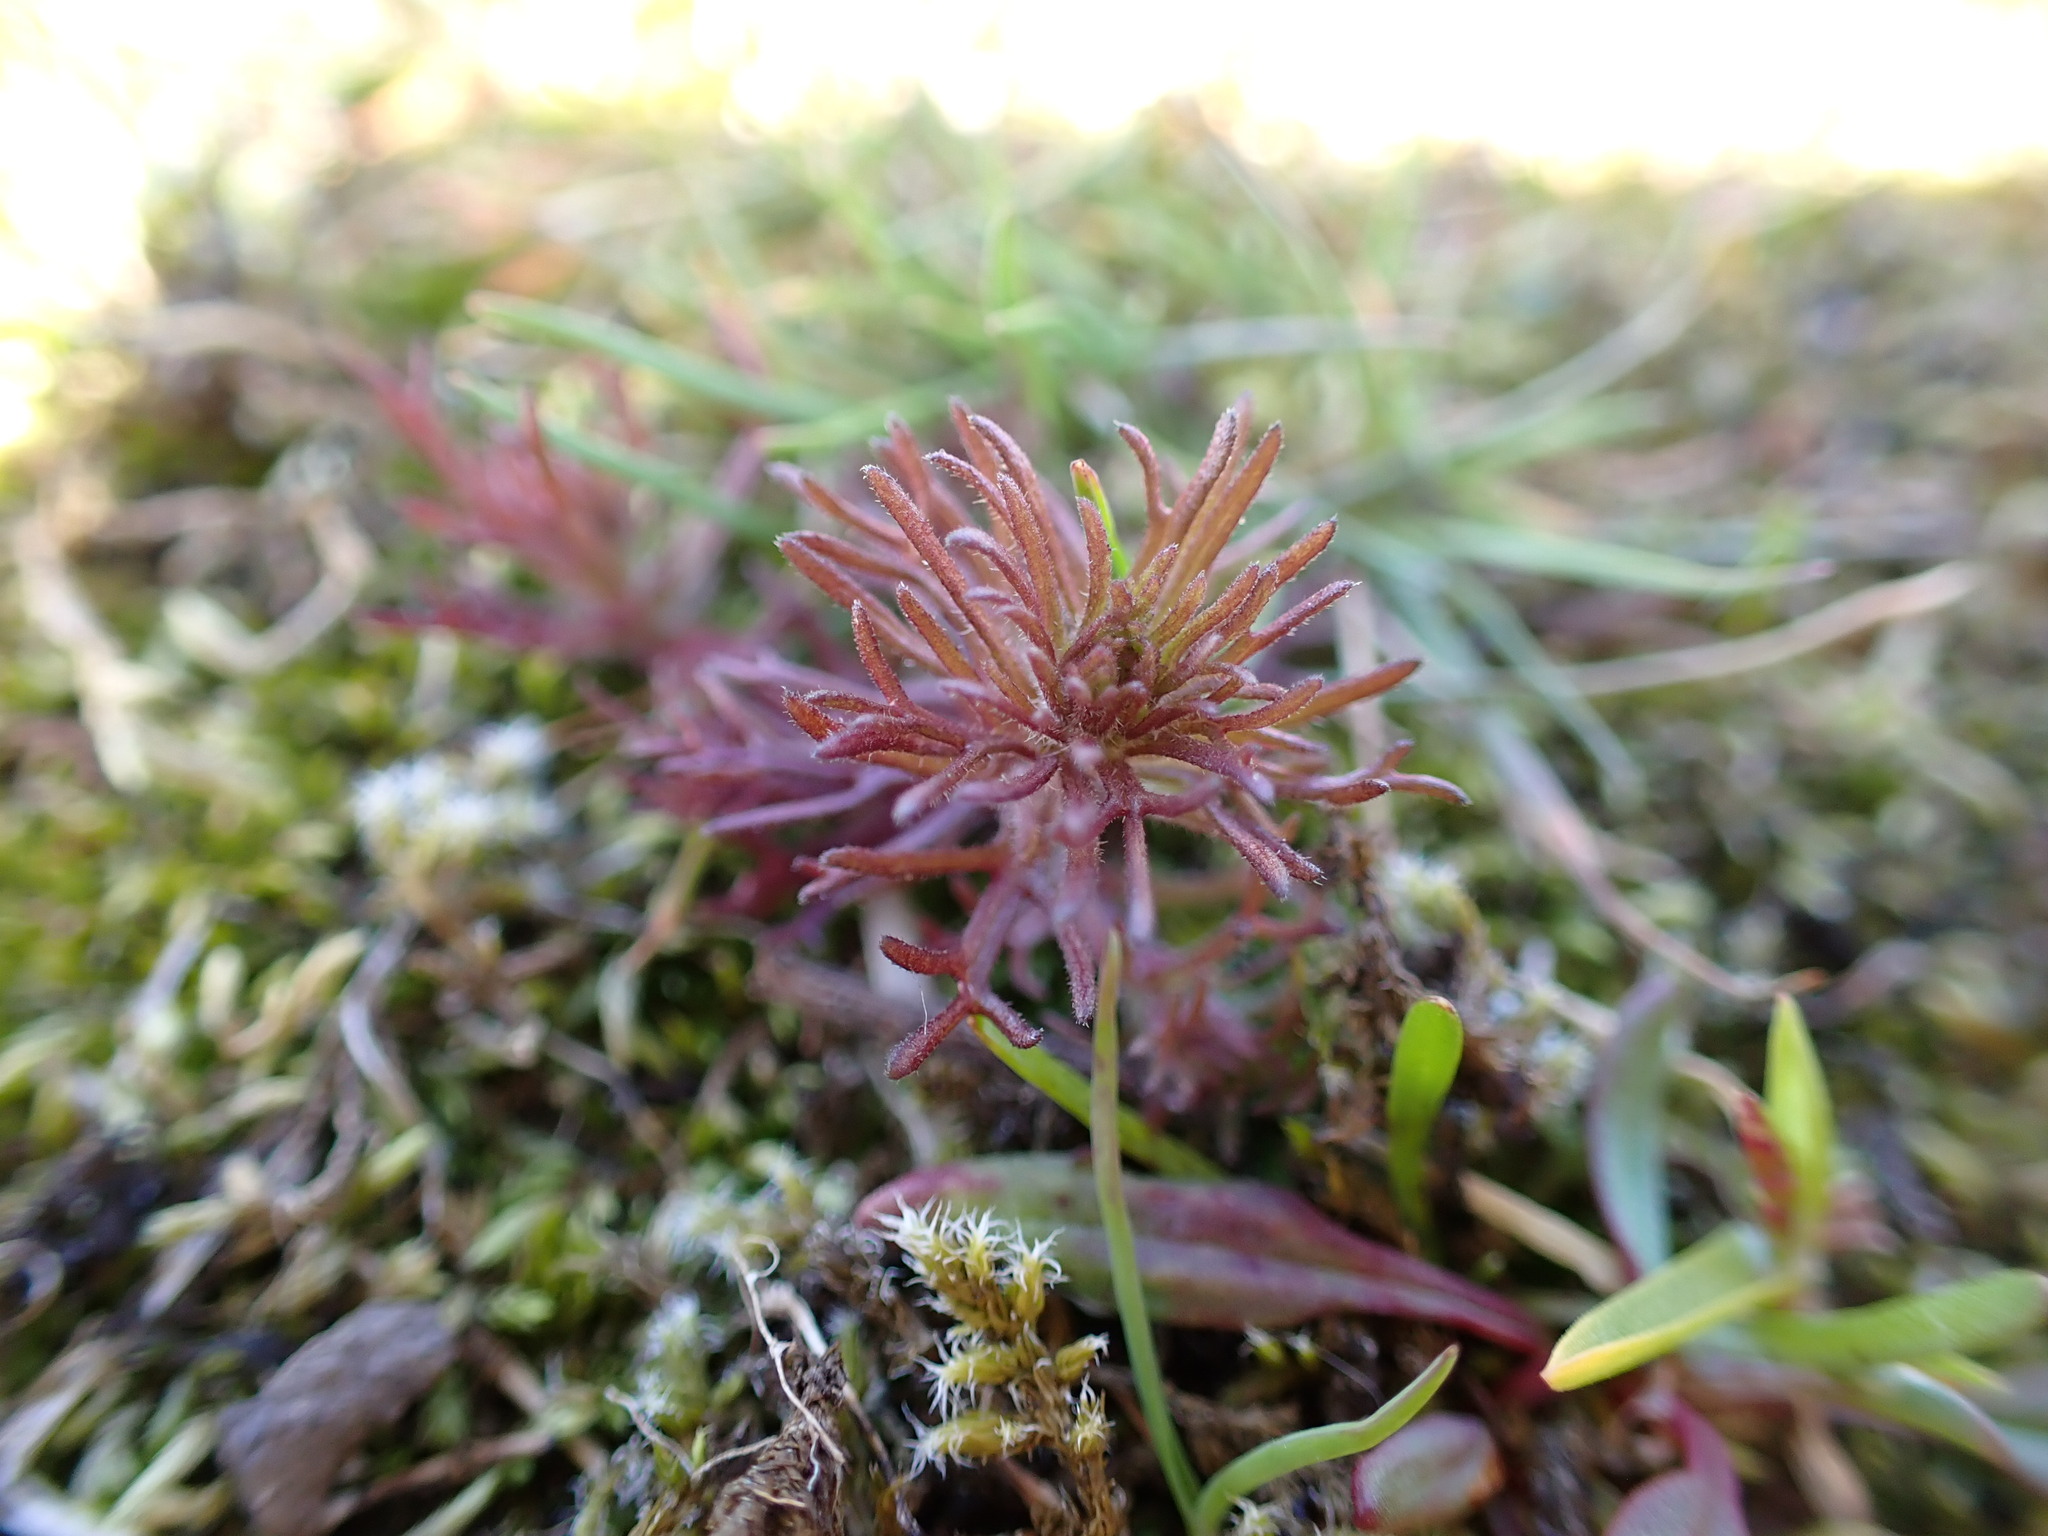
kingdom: Plantae
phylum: Tracheophyta
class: Magnoliopsida
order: Lamiales
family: Orobanchaceae
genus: Triphysaria
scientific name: Triphysaria pusilla
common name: Dwarf false owl-clover
